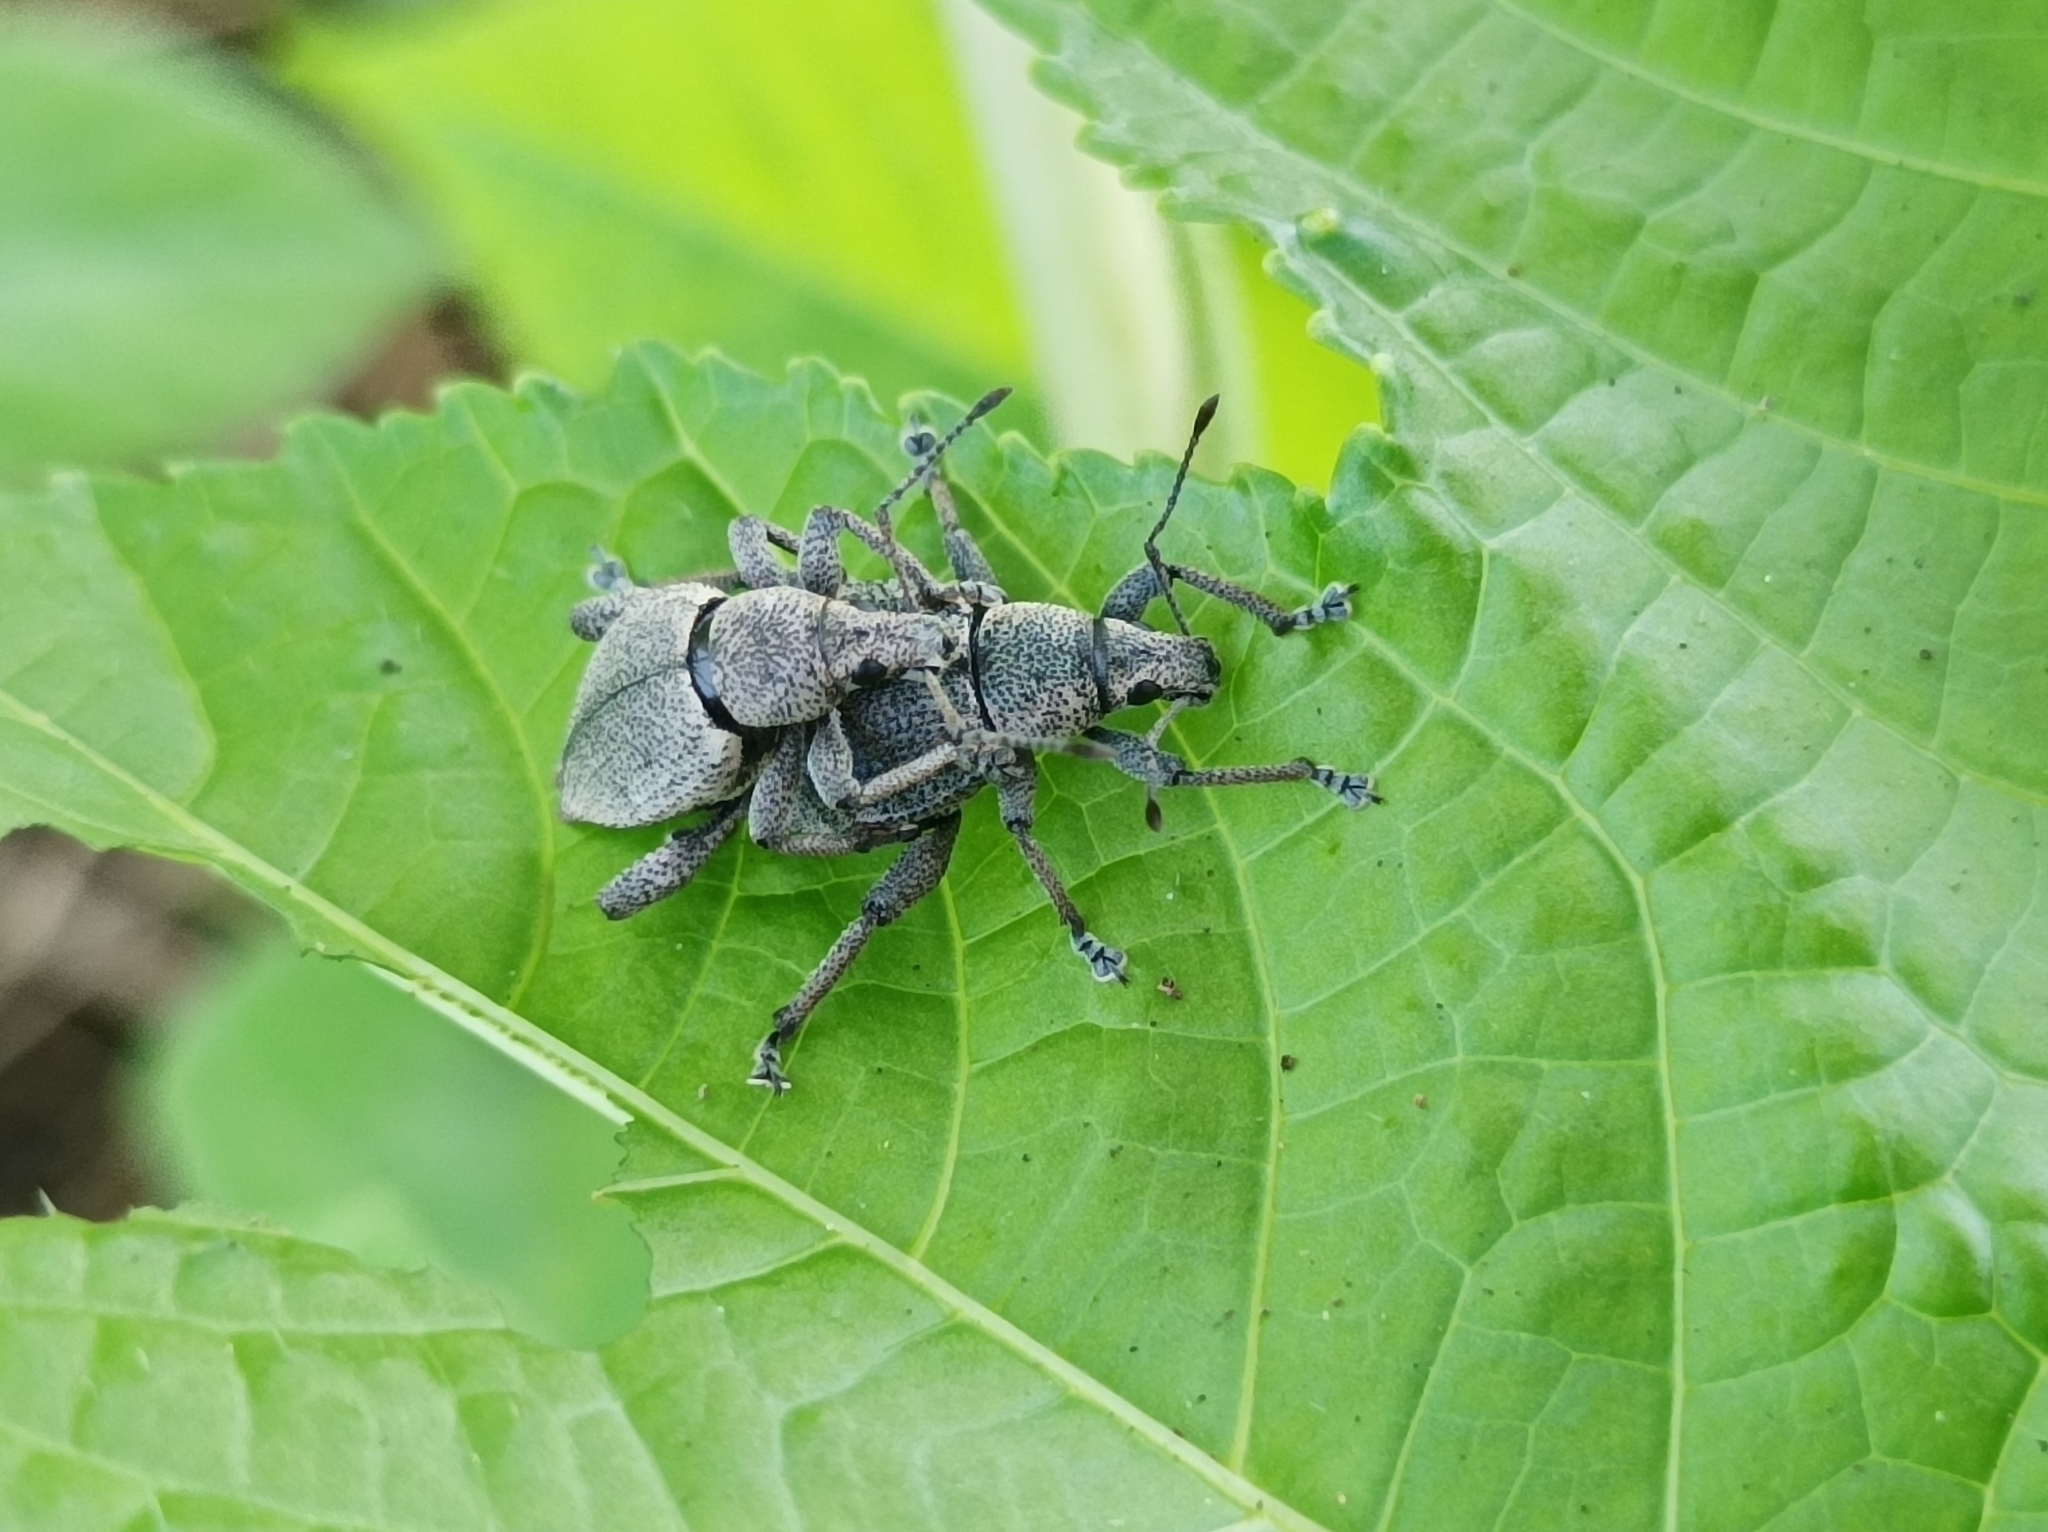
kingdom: Animalia
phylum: Arthropoda
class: Insecta
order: Coleoptera
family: Curculionidae
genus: Elytrurus
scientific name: Elytrurus marginatus
